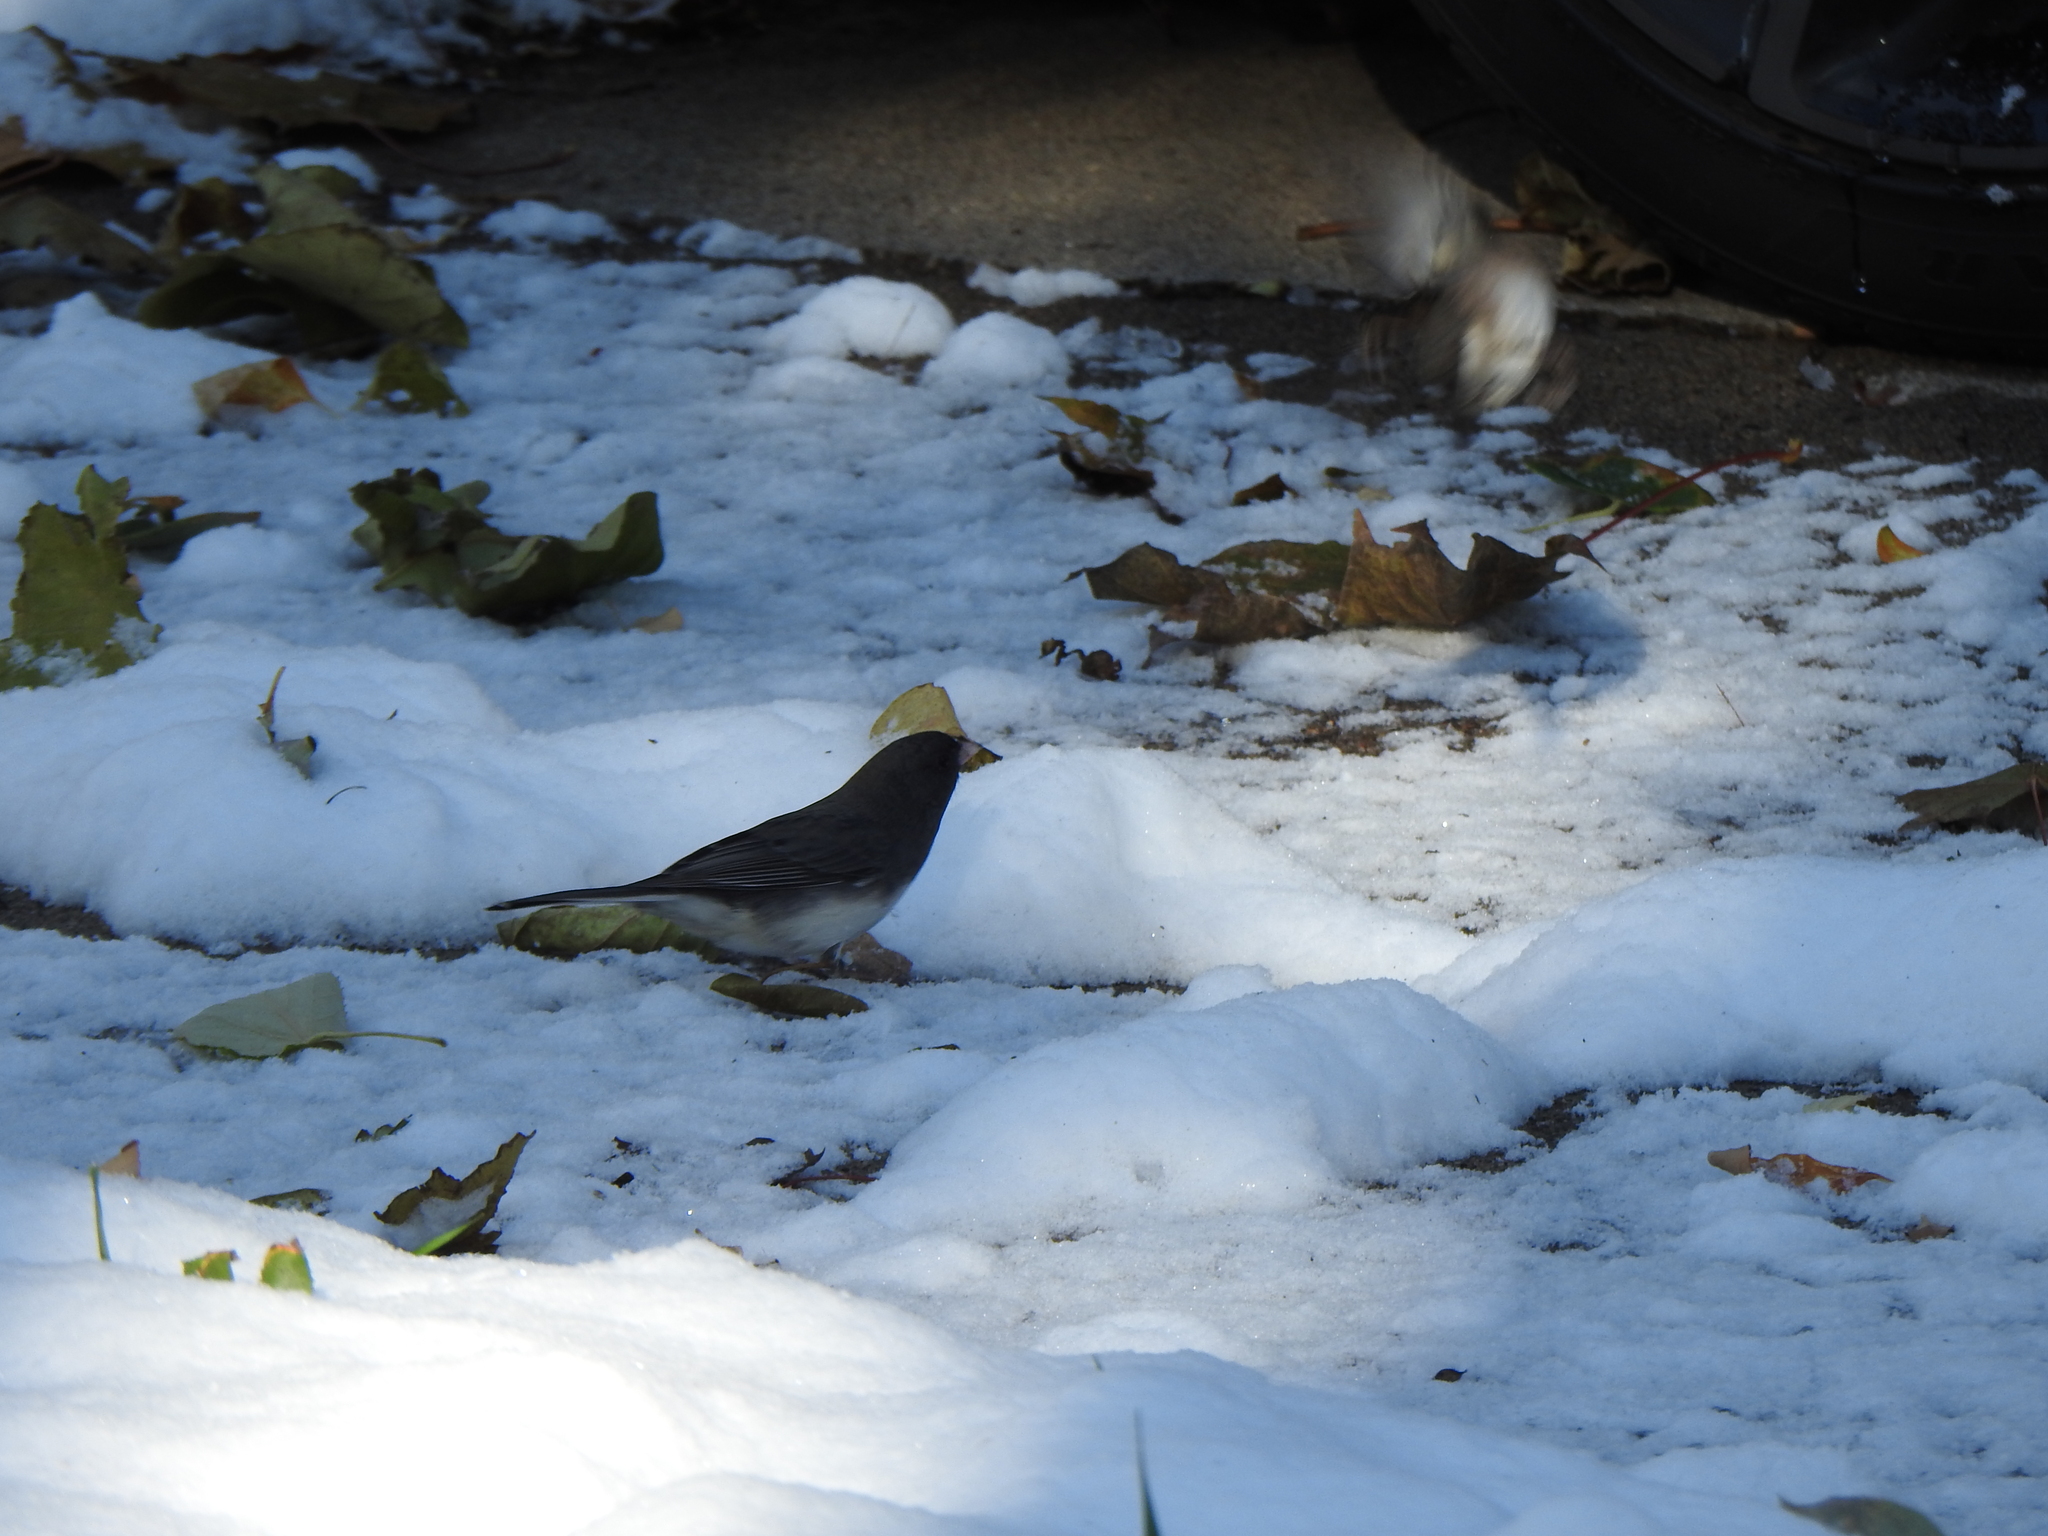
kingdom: Animalia
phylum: Chordata
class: Aves
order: Passeriformes
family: Passerellidae
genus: Junco
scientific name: Junco hyemalis
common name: Dark-eyed junco
